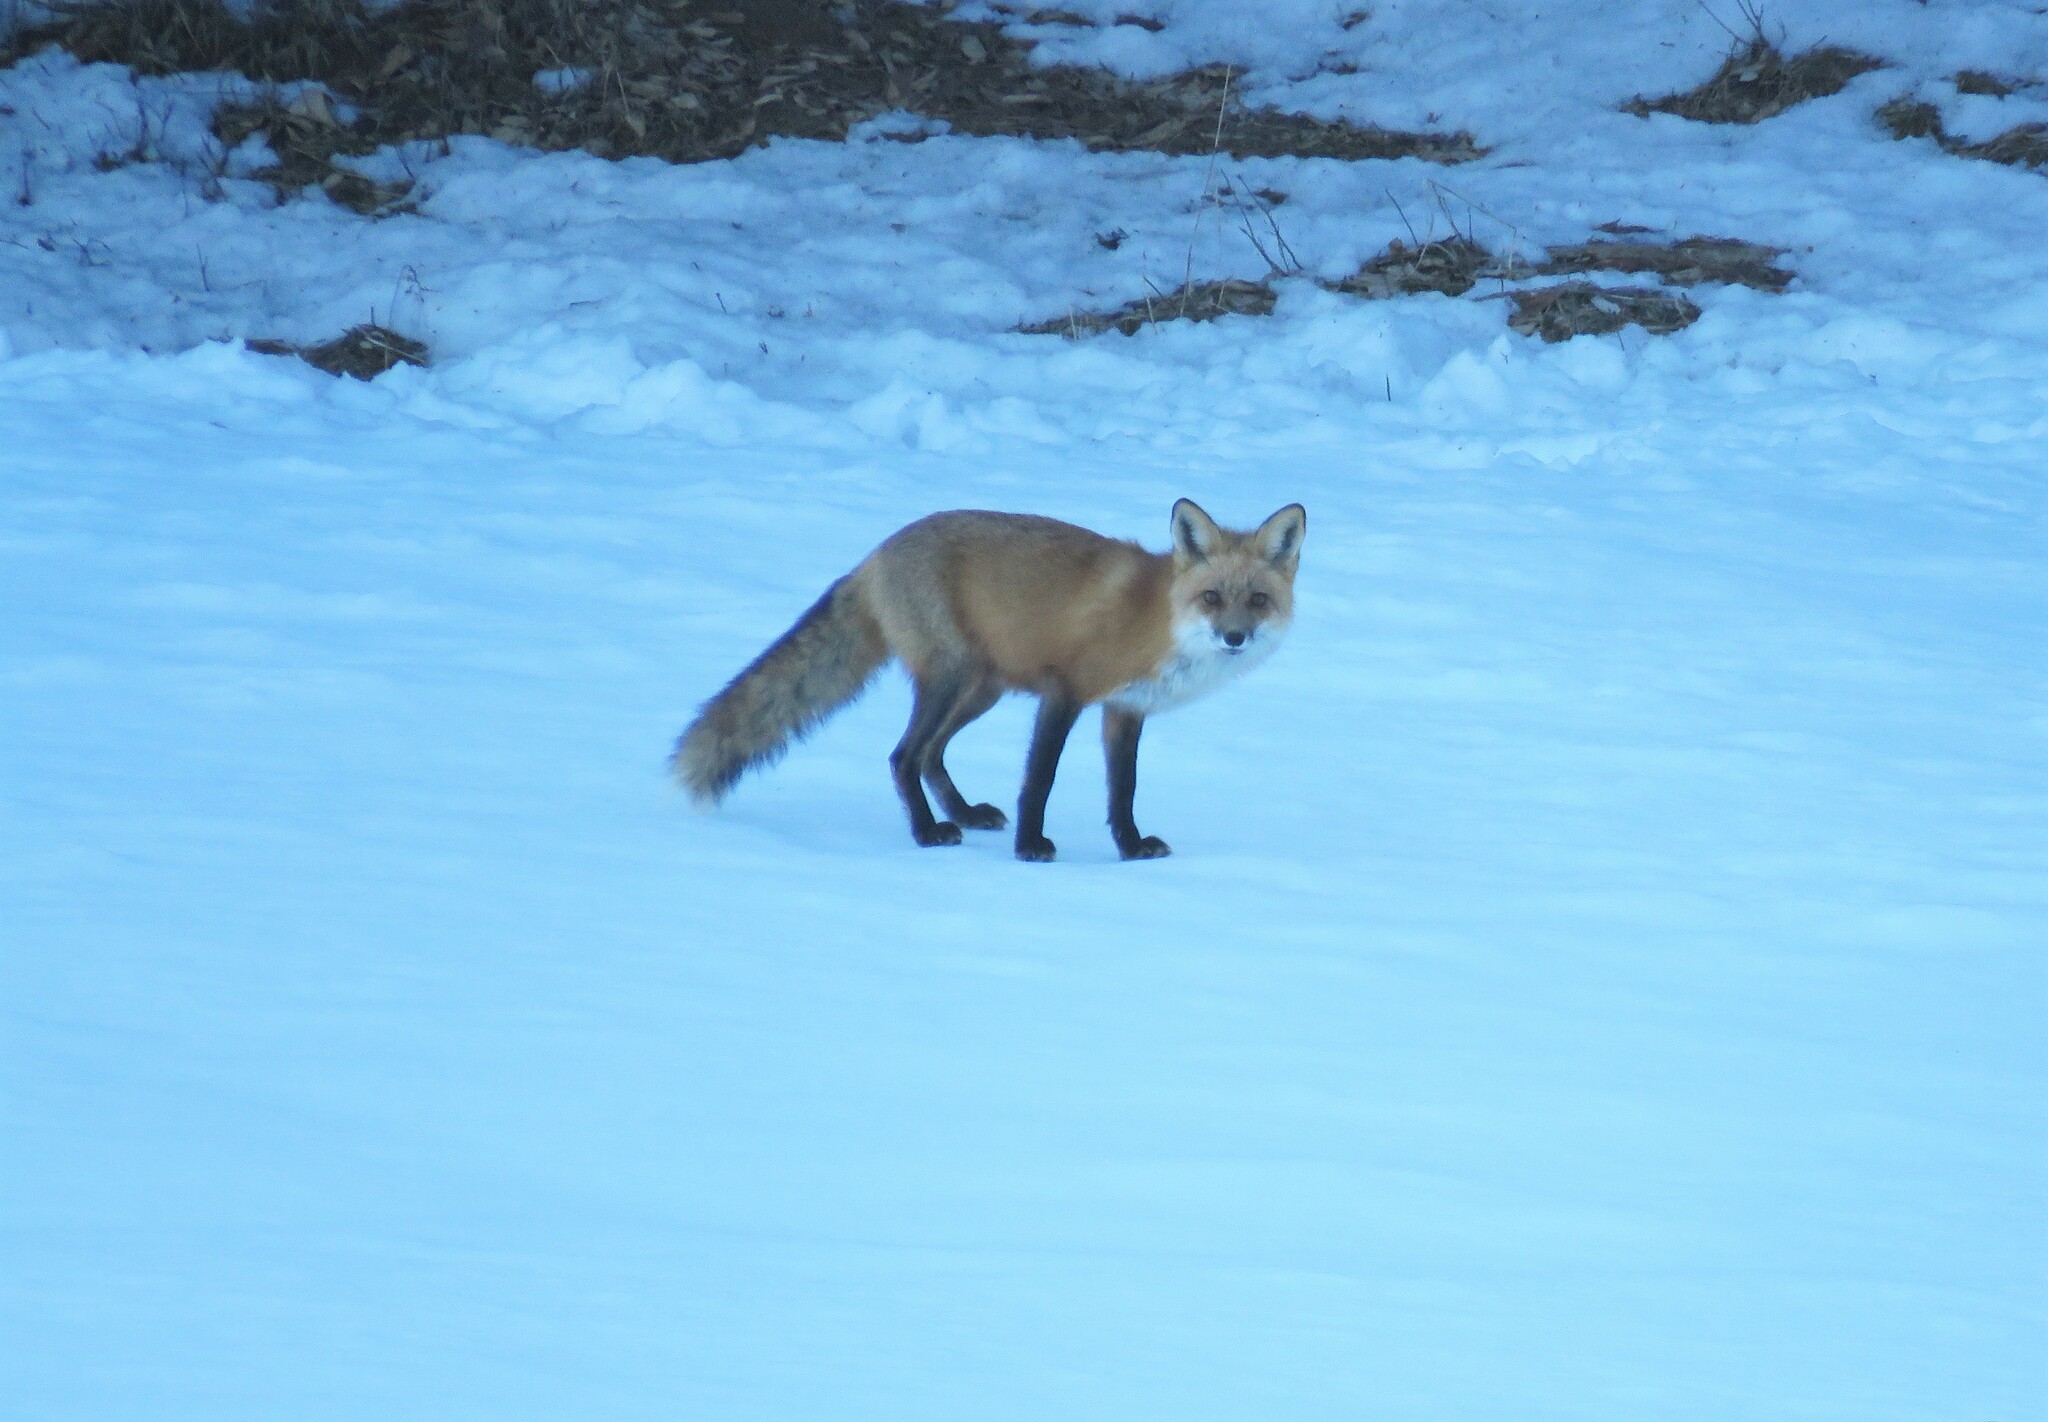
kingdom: Animalia
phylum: Chordata
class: Mammalia
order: Carnivora
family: Canidae
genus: Vulpes
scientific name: Vulpes vulpes
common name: Red fox
